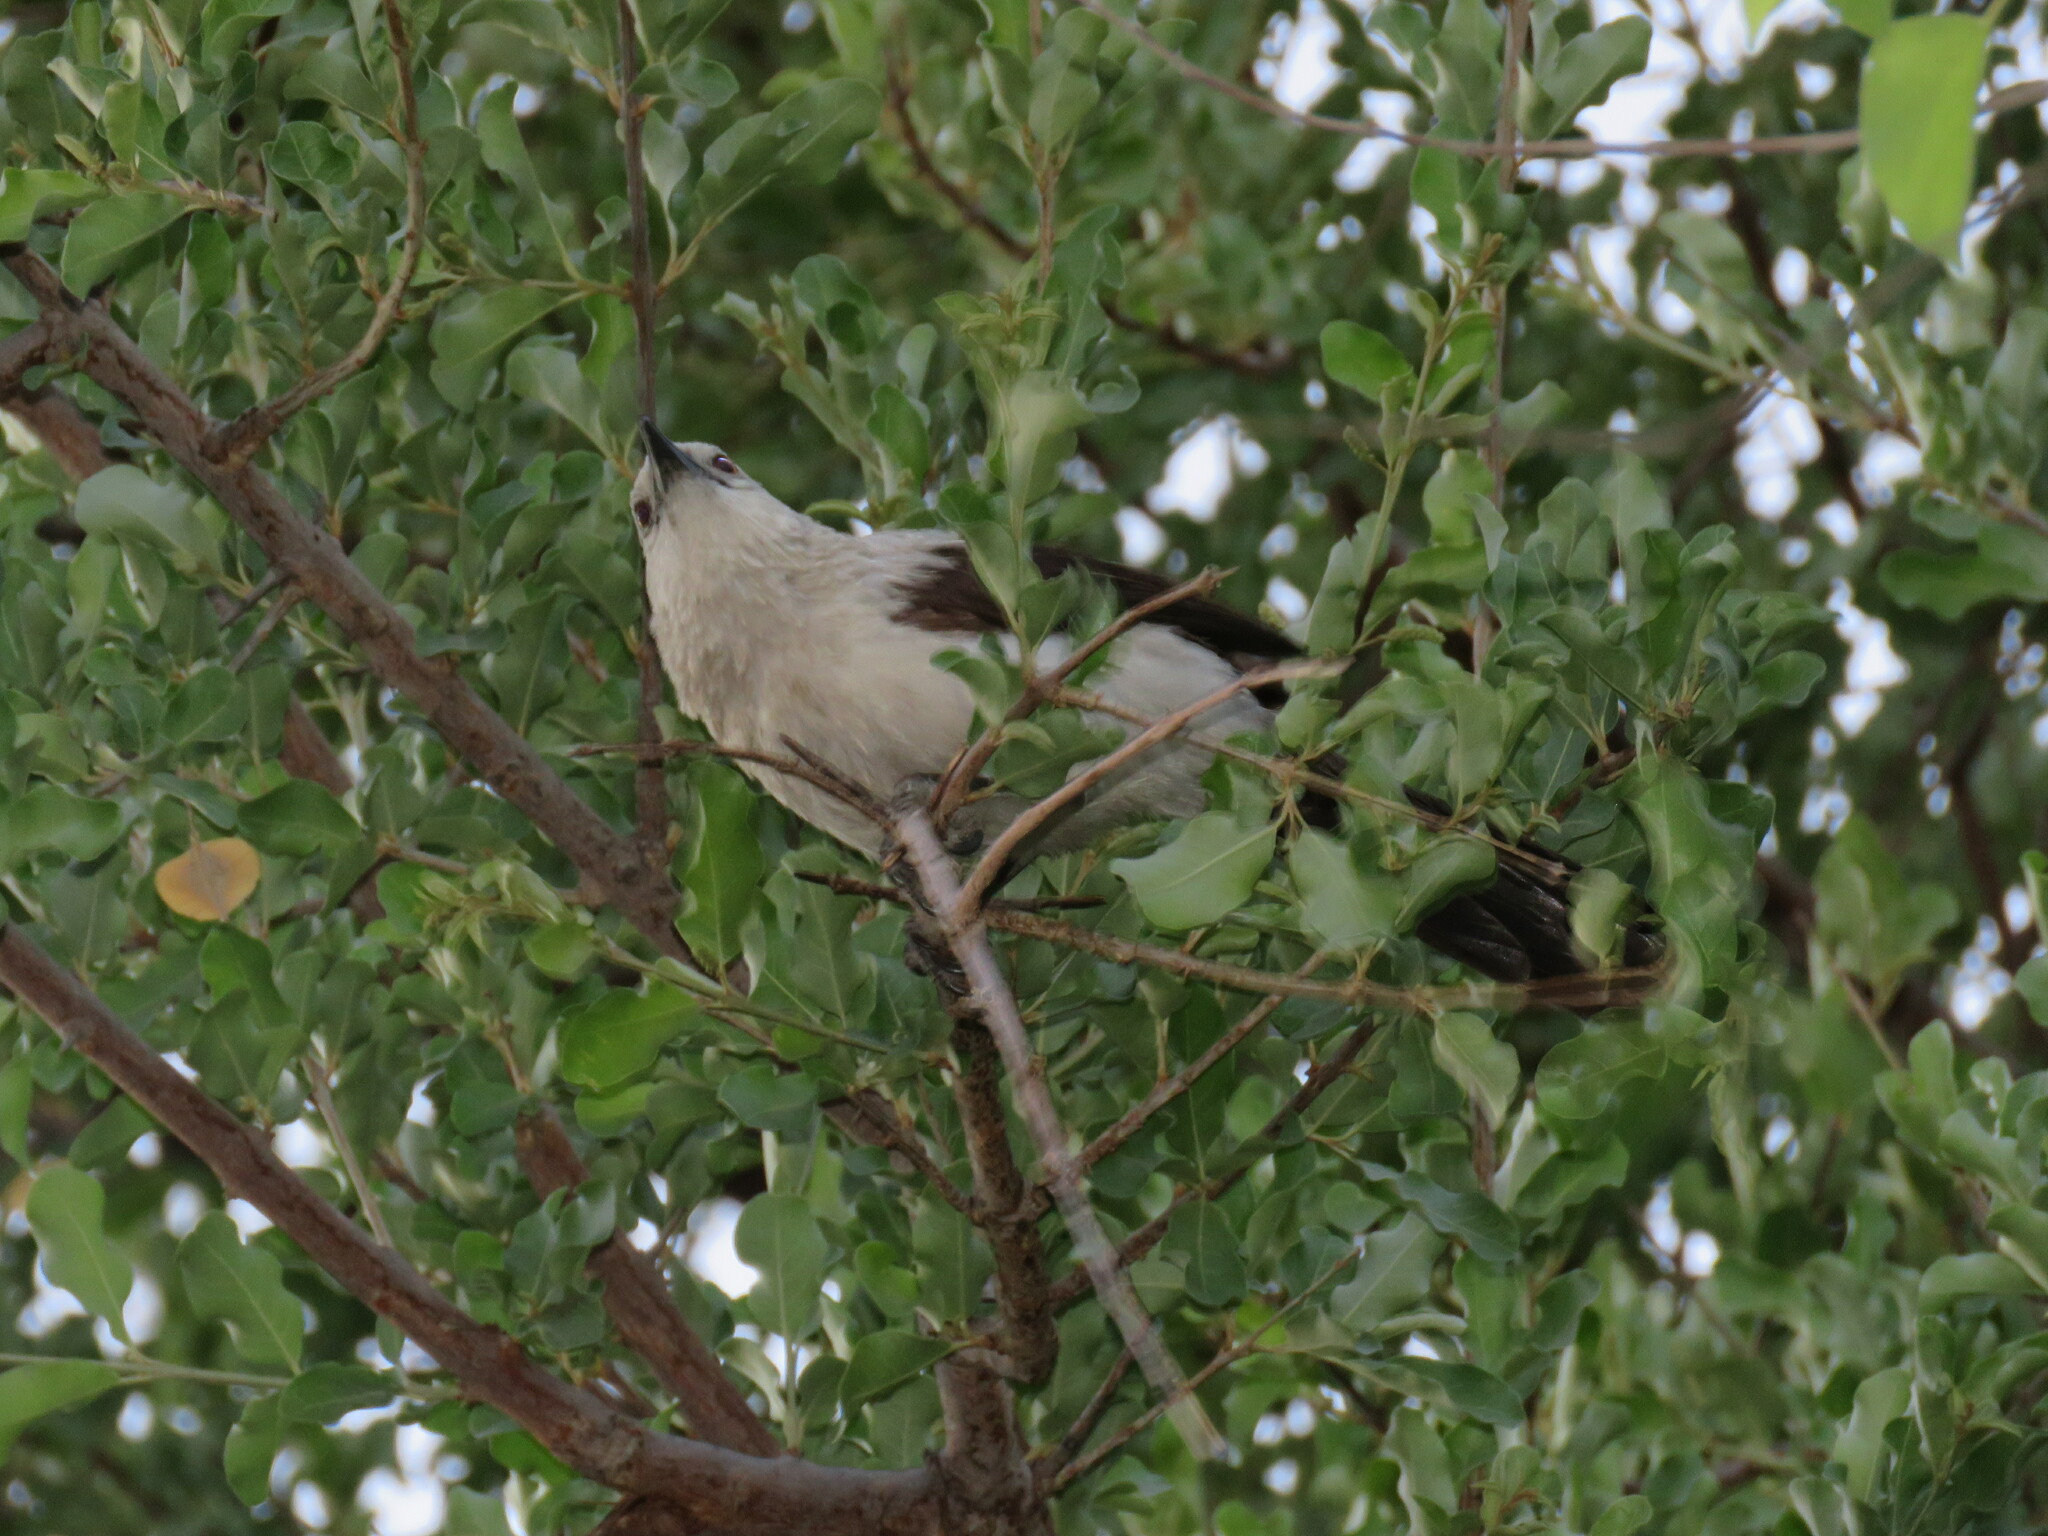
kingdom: Animalia
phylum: Chordata
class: Aves
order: Passeriformes
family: Leiothrichidae
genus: Turdoides
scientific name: Turdoides bicolor
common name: Southern pied babbler
